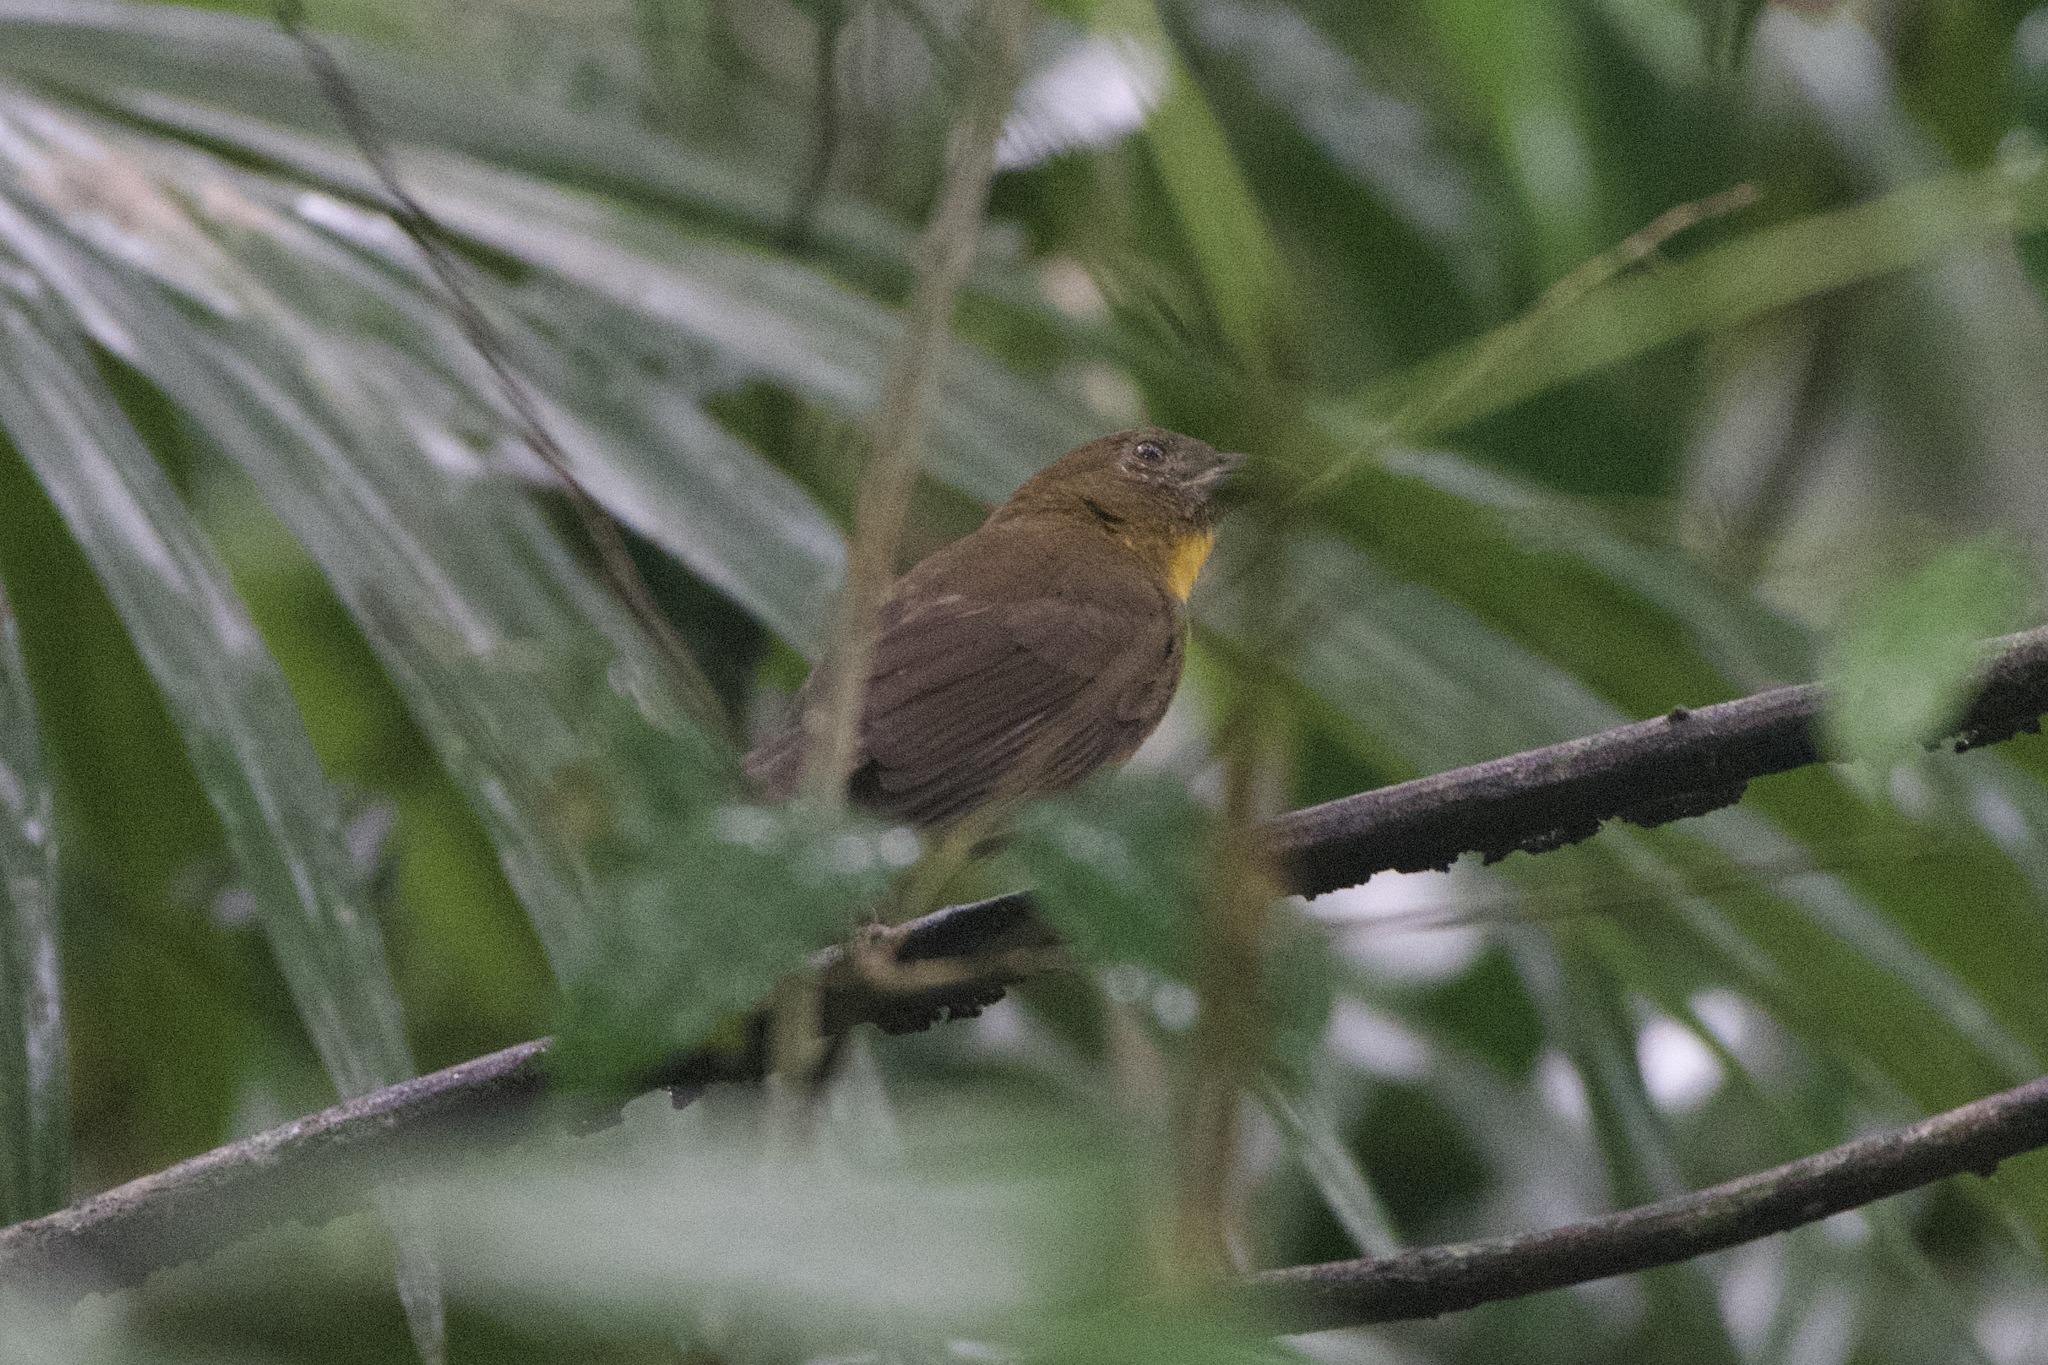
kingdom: Animalia
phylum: Chordata
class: Aves
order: Passeriformes
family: Cardinalidae
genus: Habia
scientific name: Habia fuscicauda
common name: Red-throated ant-tanager
